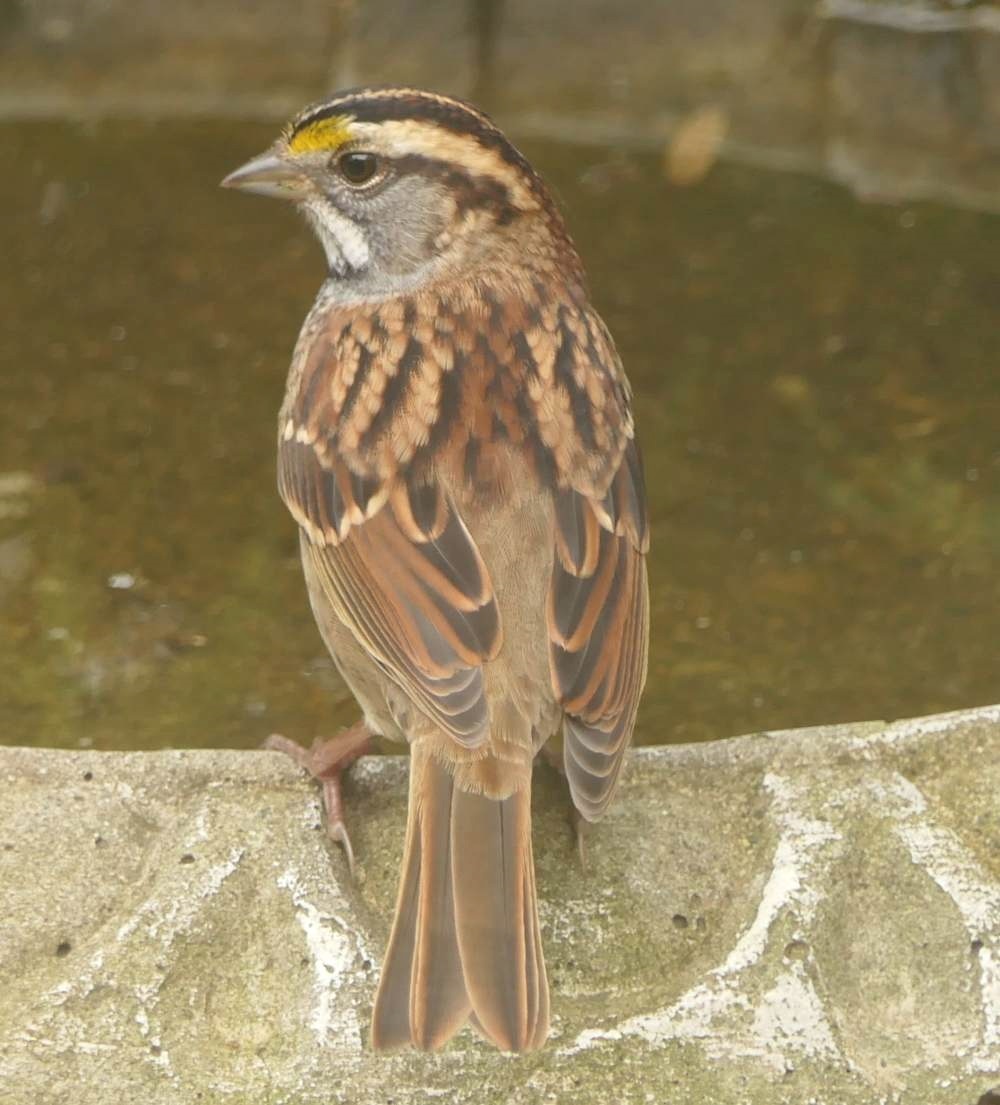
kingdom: Animalia
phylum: Chordata
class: Aves
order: Passeriformes
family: Passerellidae
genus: Zonotrichia
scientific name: Zonotrichia albicollis
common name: White-throated sparrow
